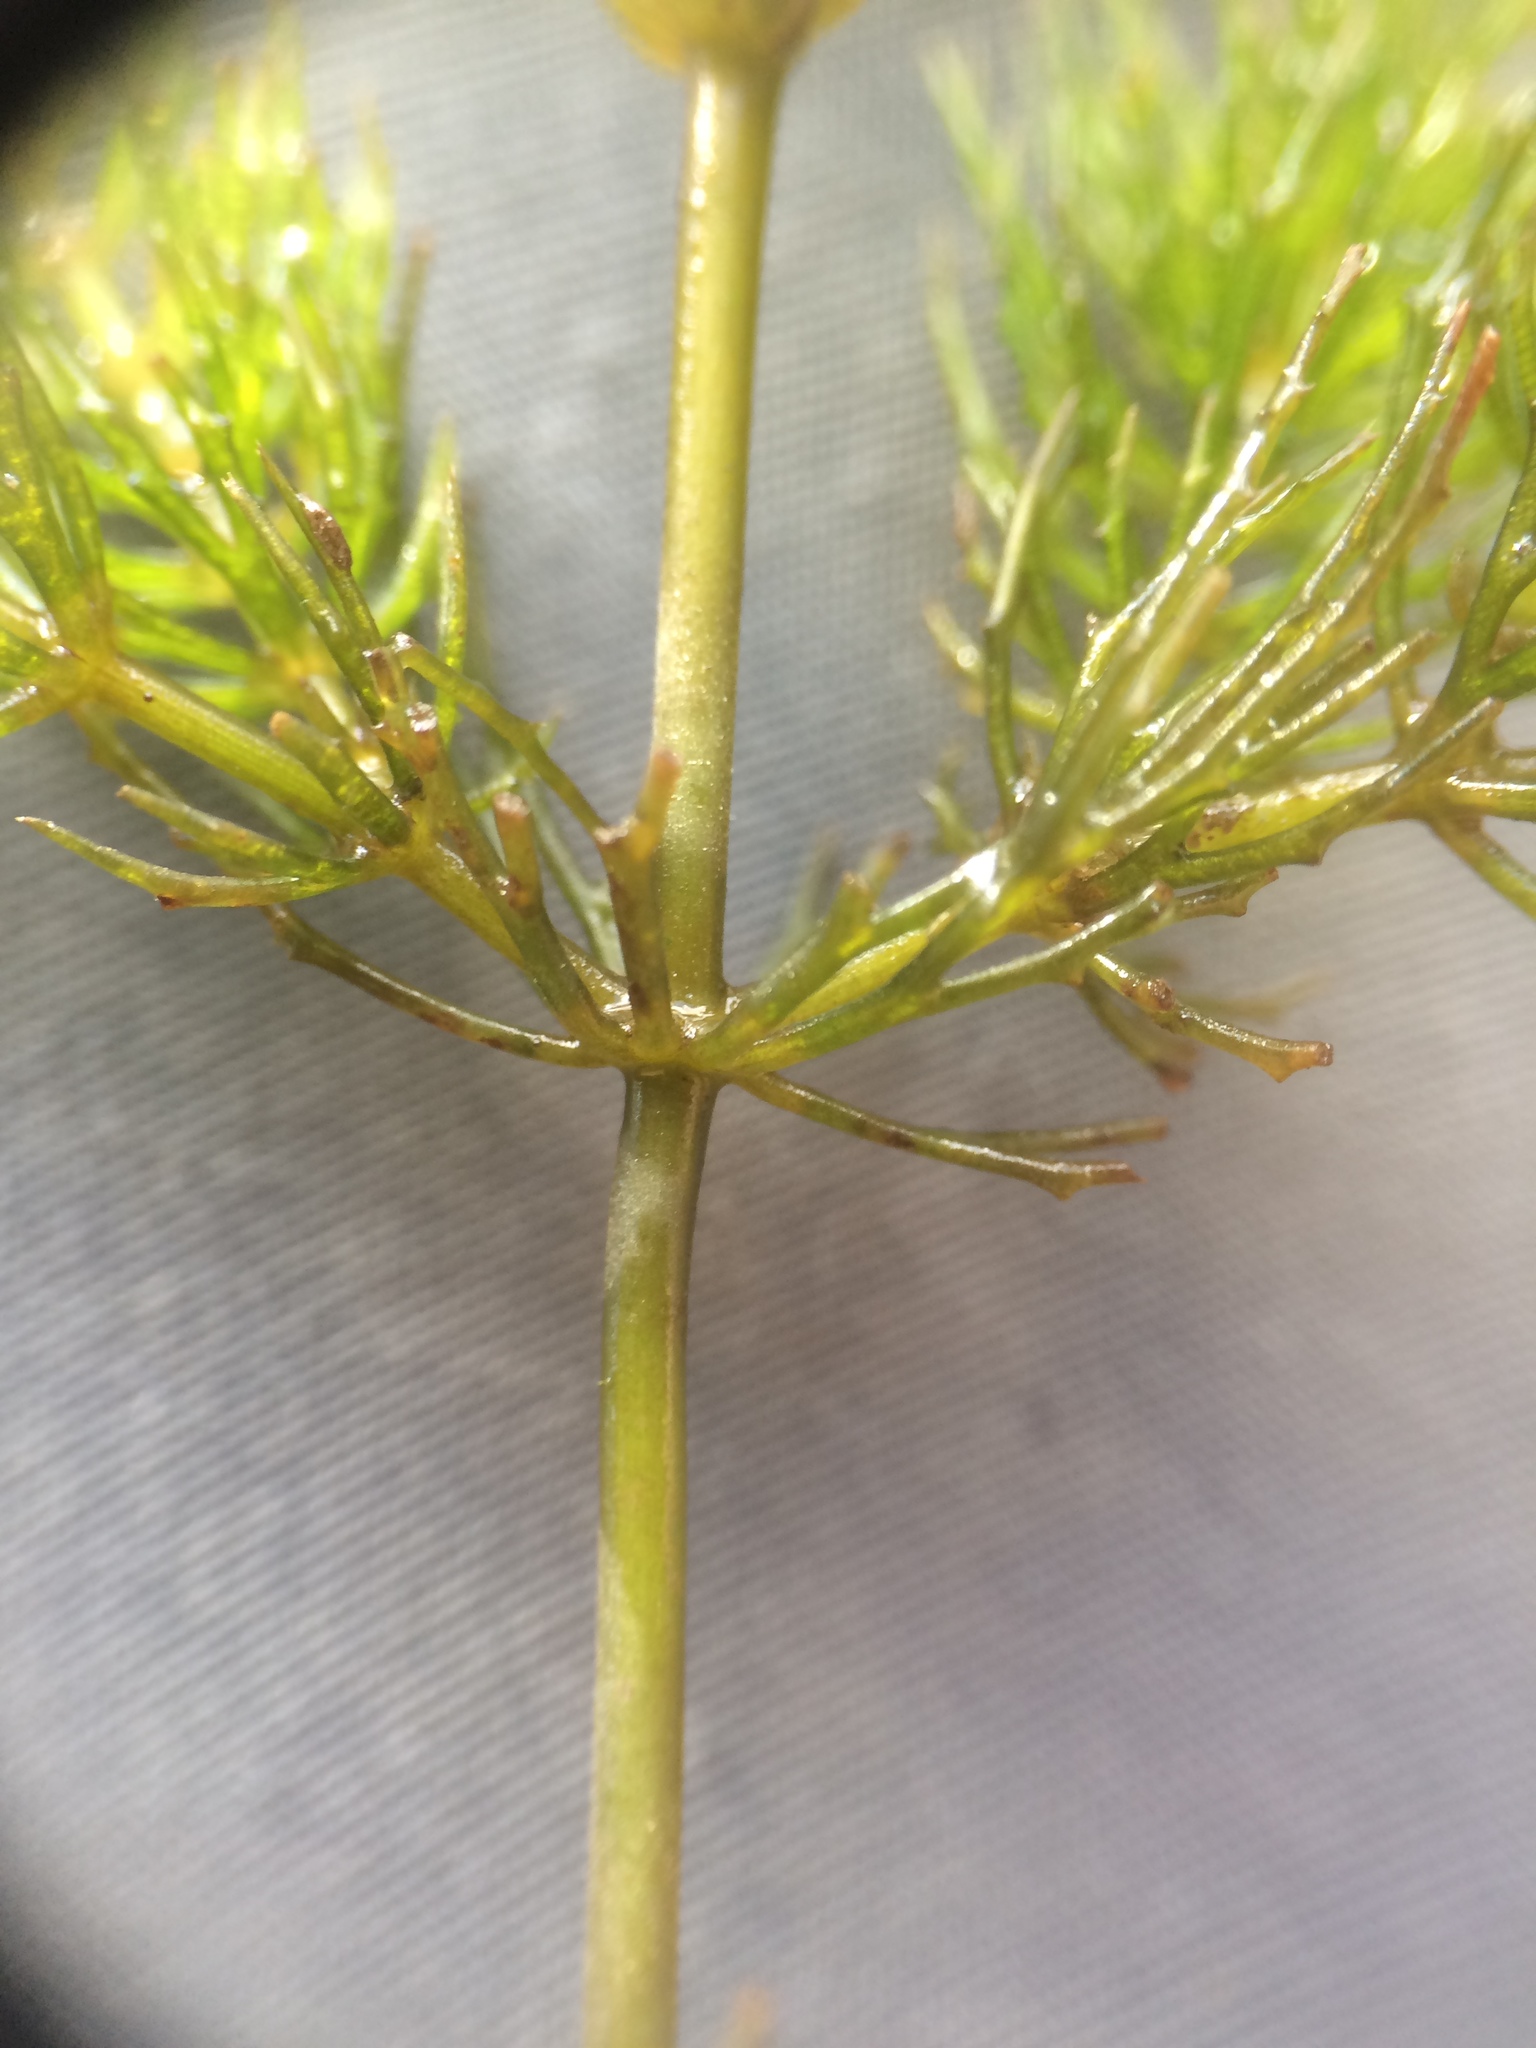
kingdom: Plantae
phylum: Tracheophyta
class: Magnoliopsida
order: Ceratophyllales
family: Ceratophyllaceae
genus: Ceratophyllum
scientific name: Ceratophyllum demersum
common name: Rigid hornwort
